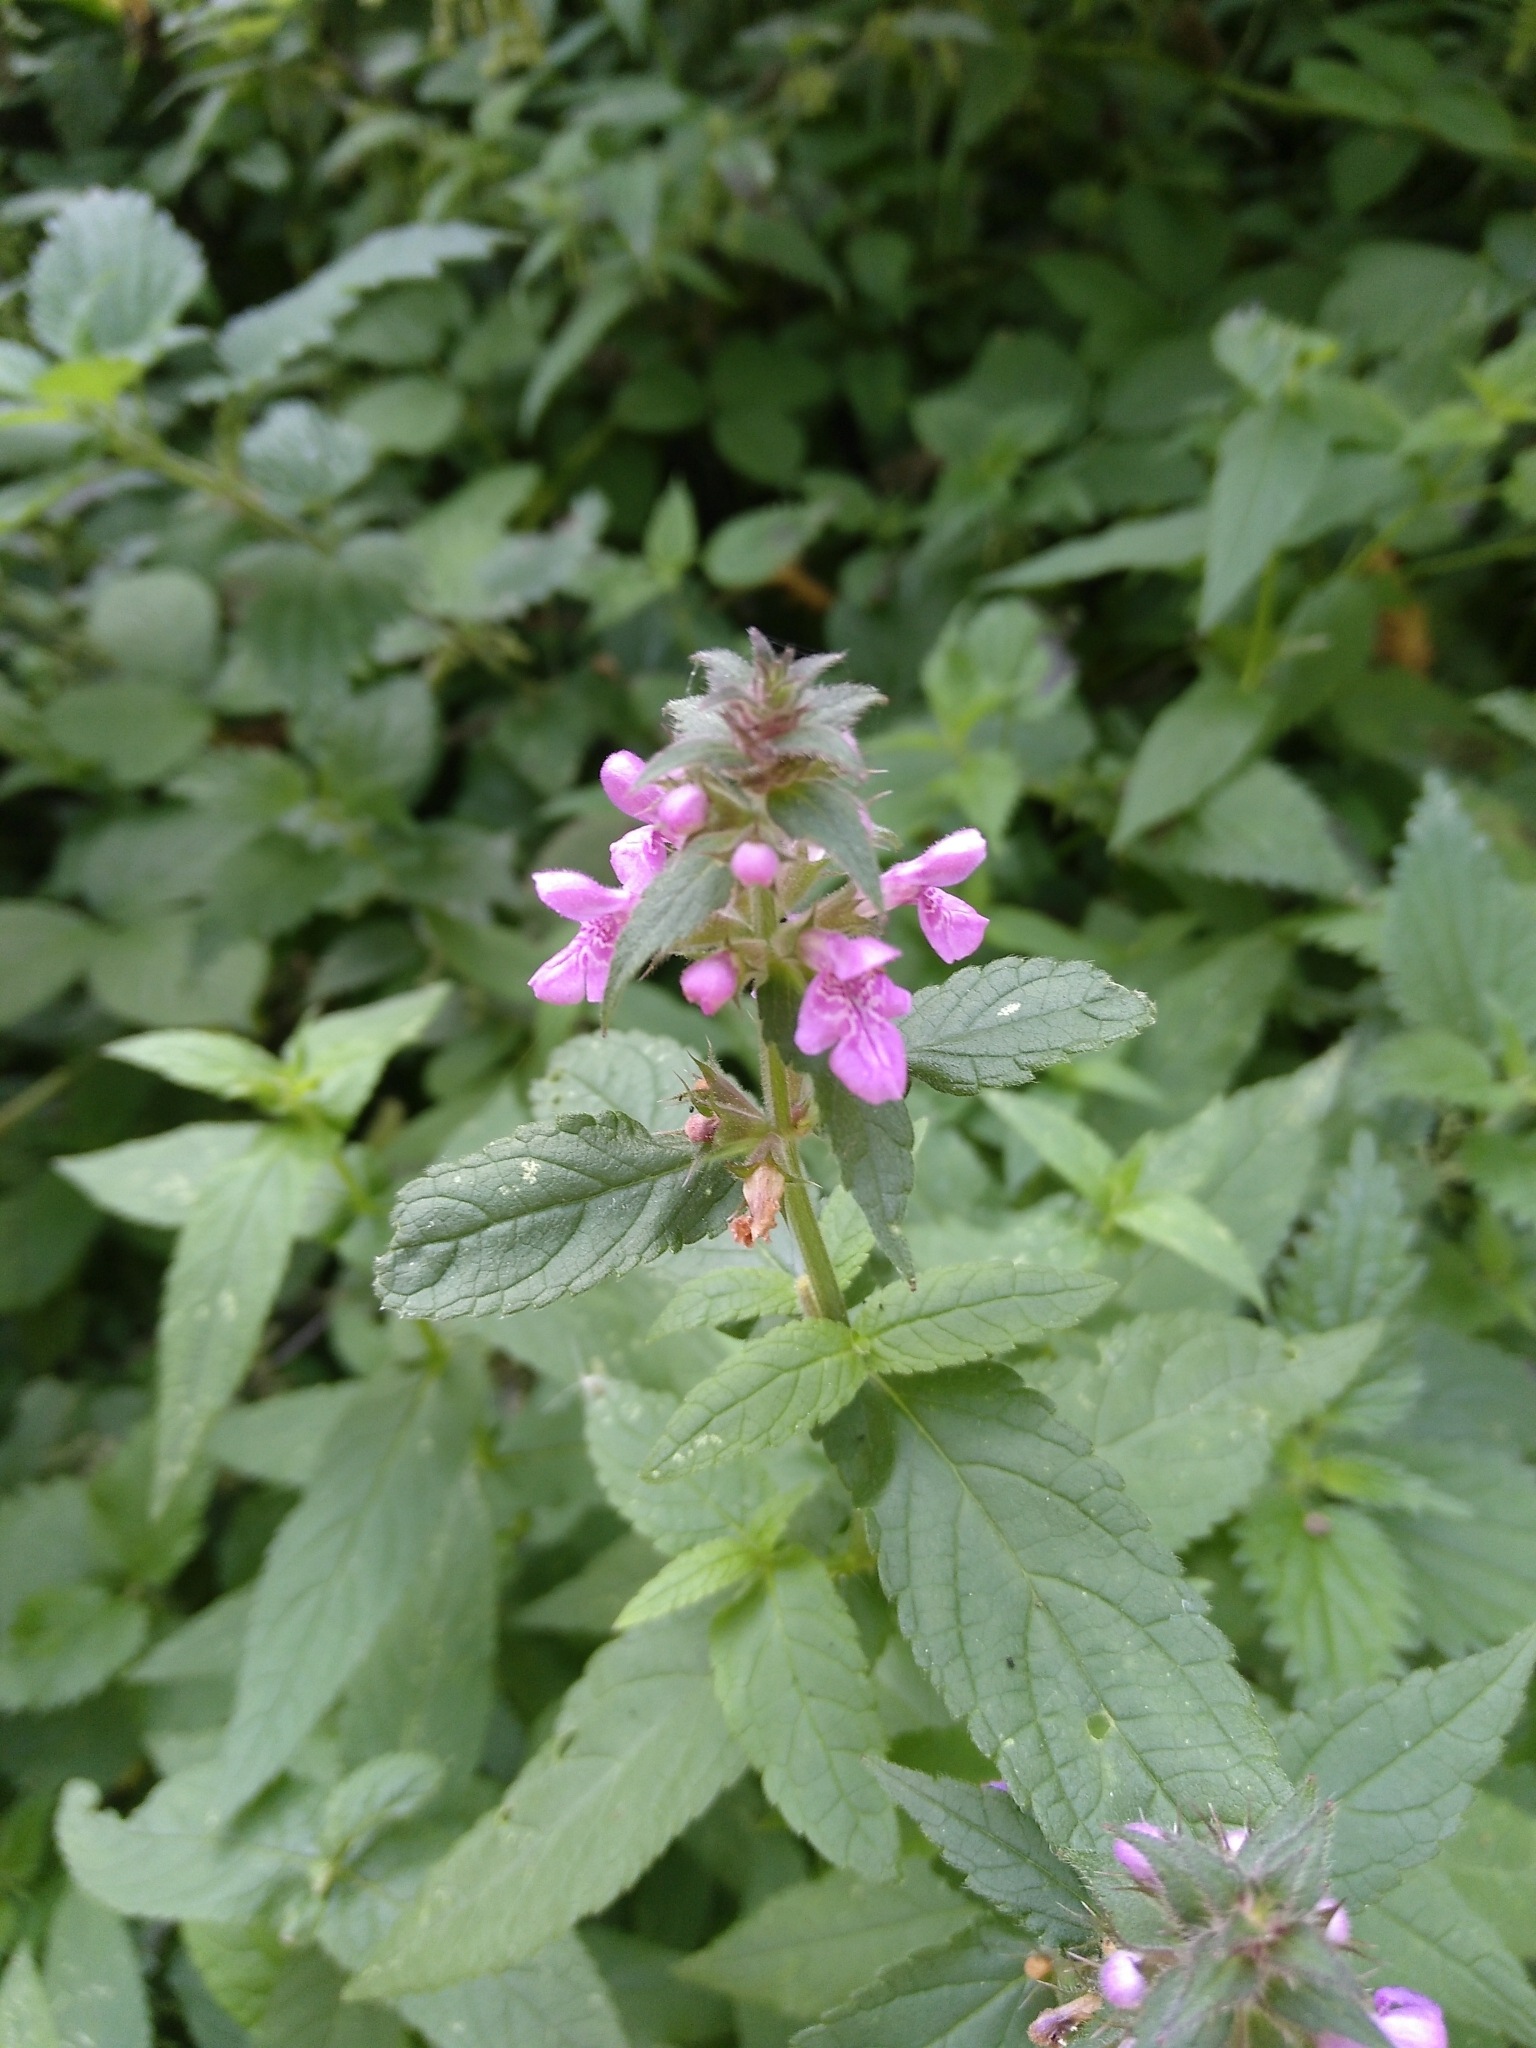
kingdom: Plantae
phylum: Tracheophyta
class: Magnoliopsida
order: Lamiales
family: Lamiaceae
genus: Stachys
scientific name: Stachys palustris
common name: Marsh woundwort
